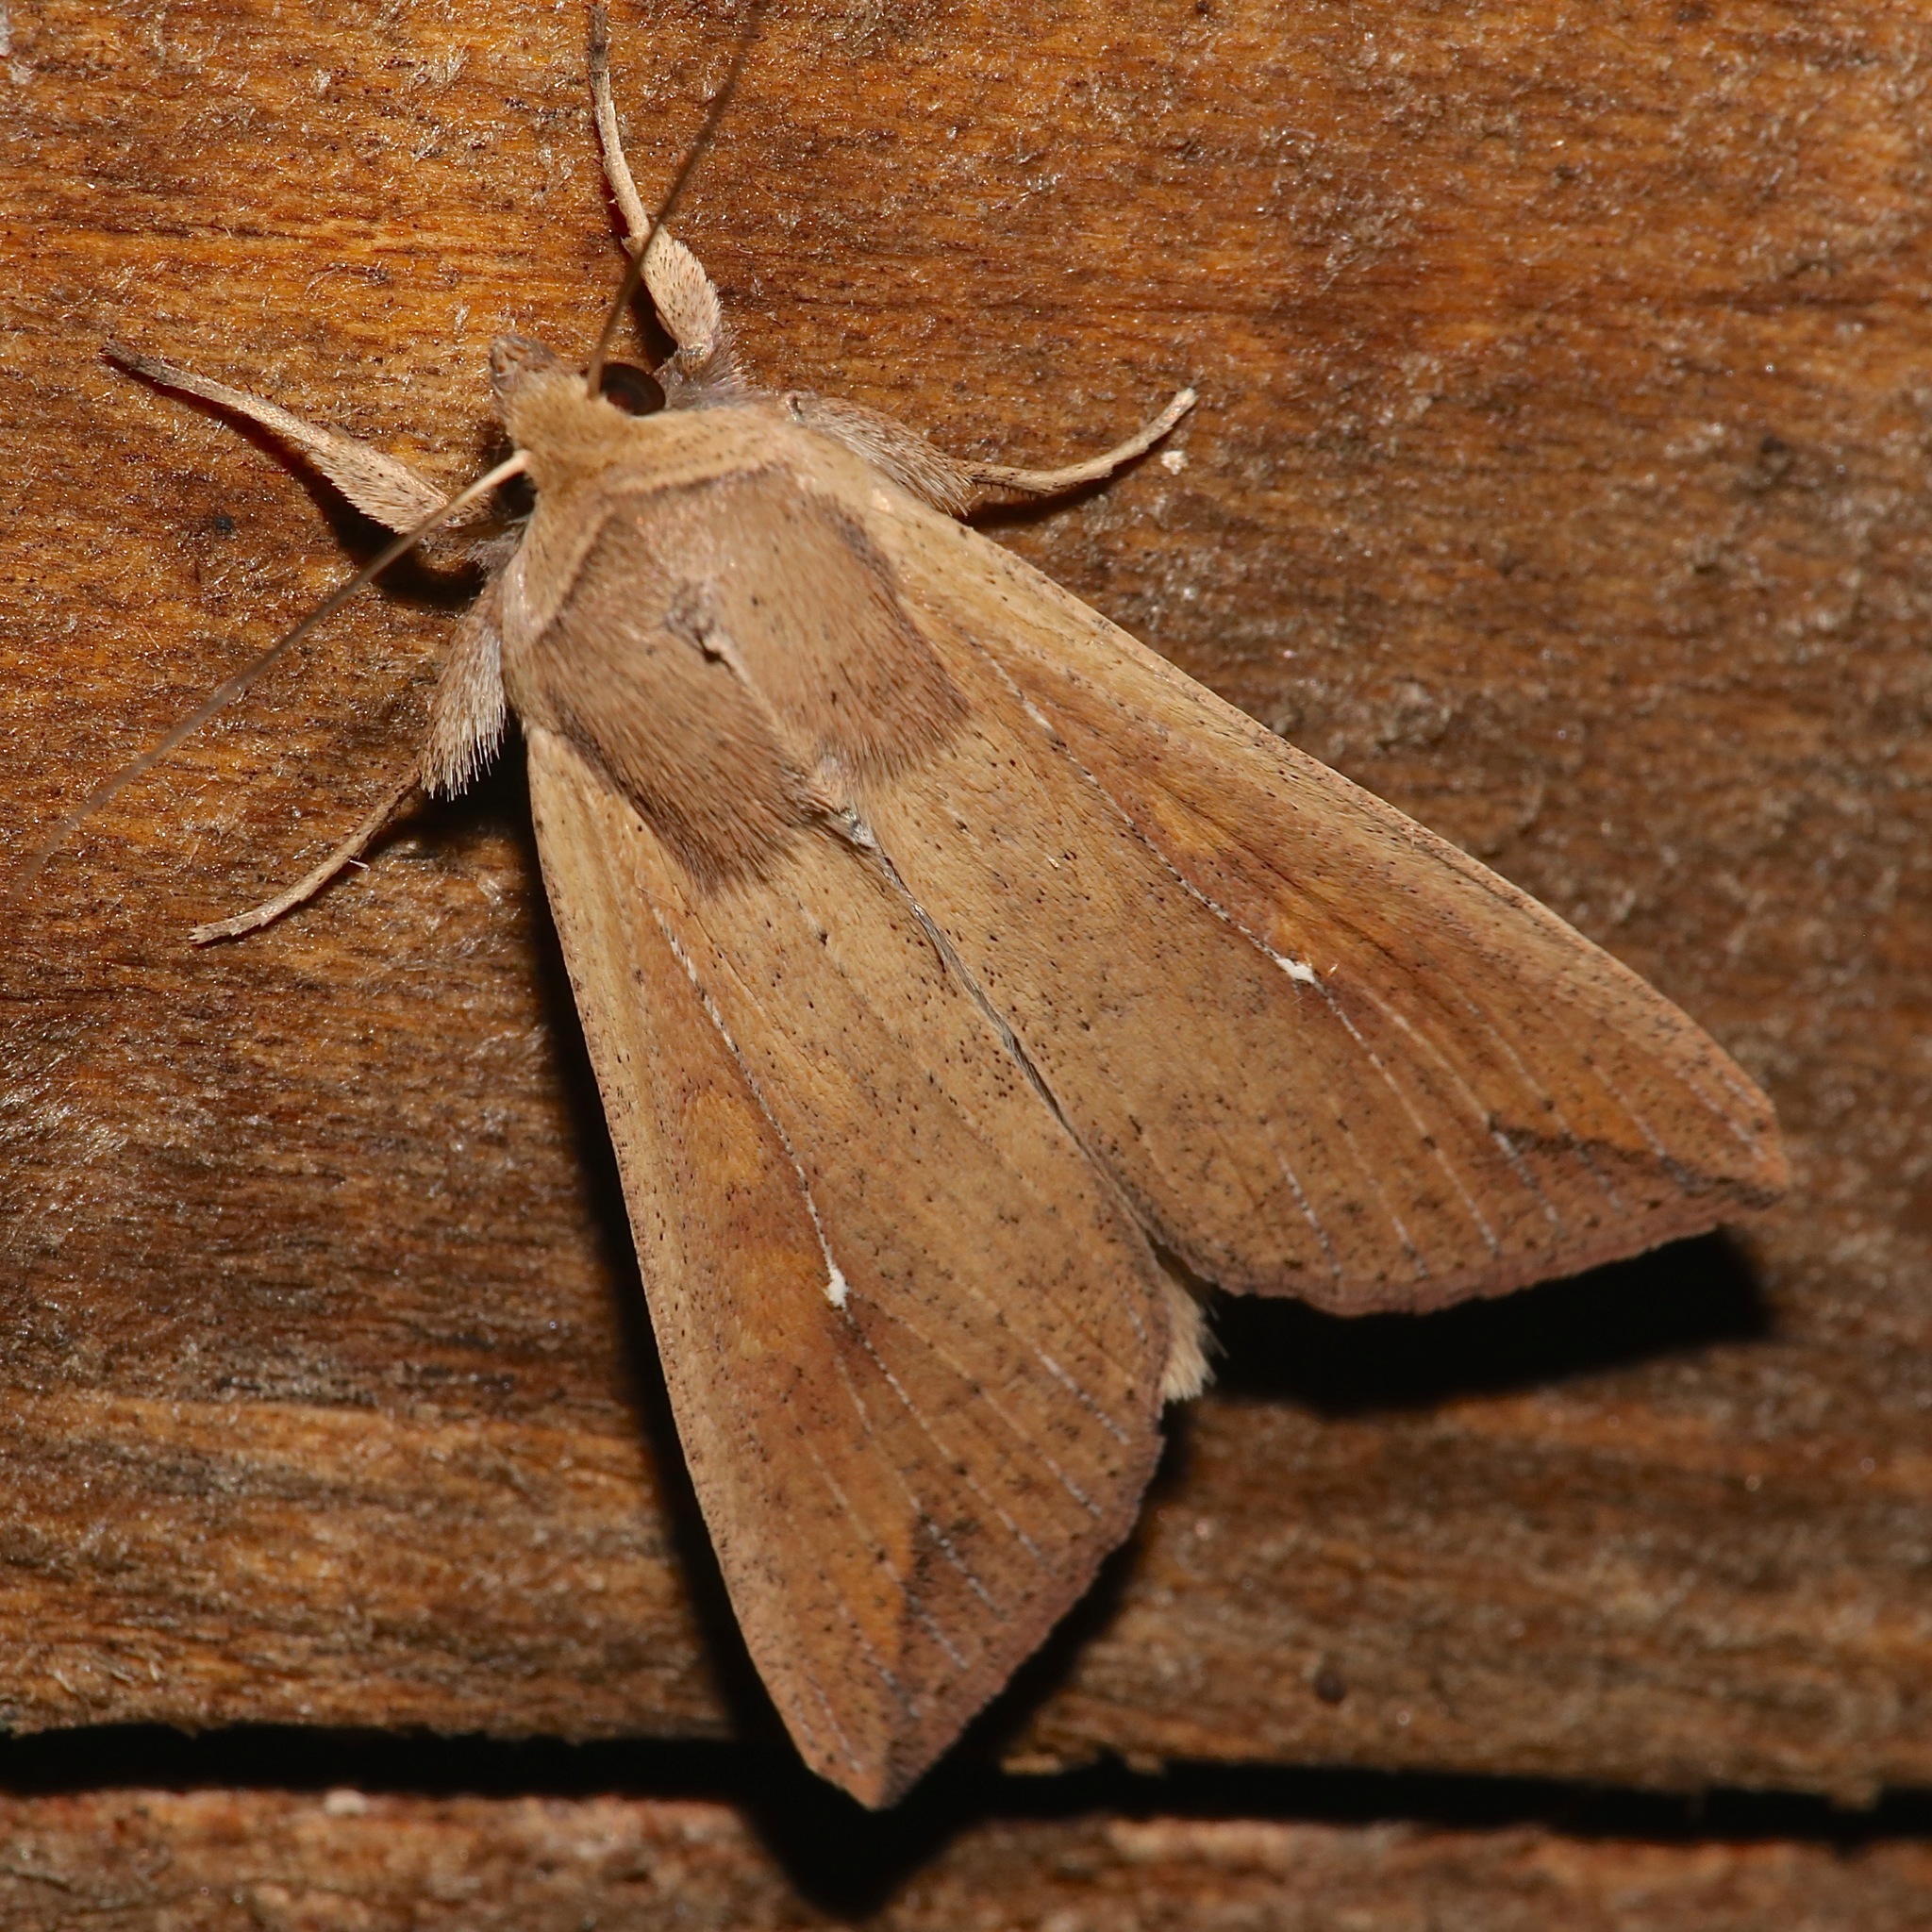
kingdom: Animalia
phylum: Arthropoda
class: Insecta
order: Lepidoptera
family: Noctuidae
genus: Mythimna
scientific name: Mythimna unipuncta
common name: White-speck
